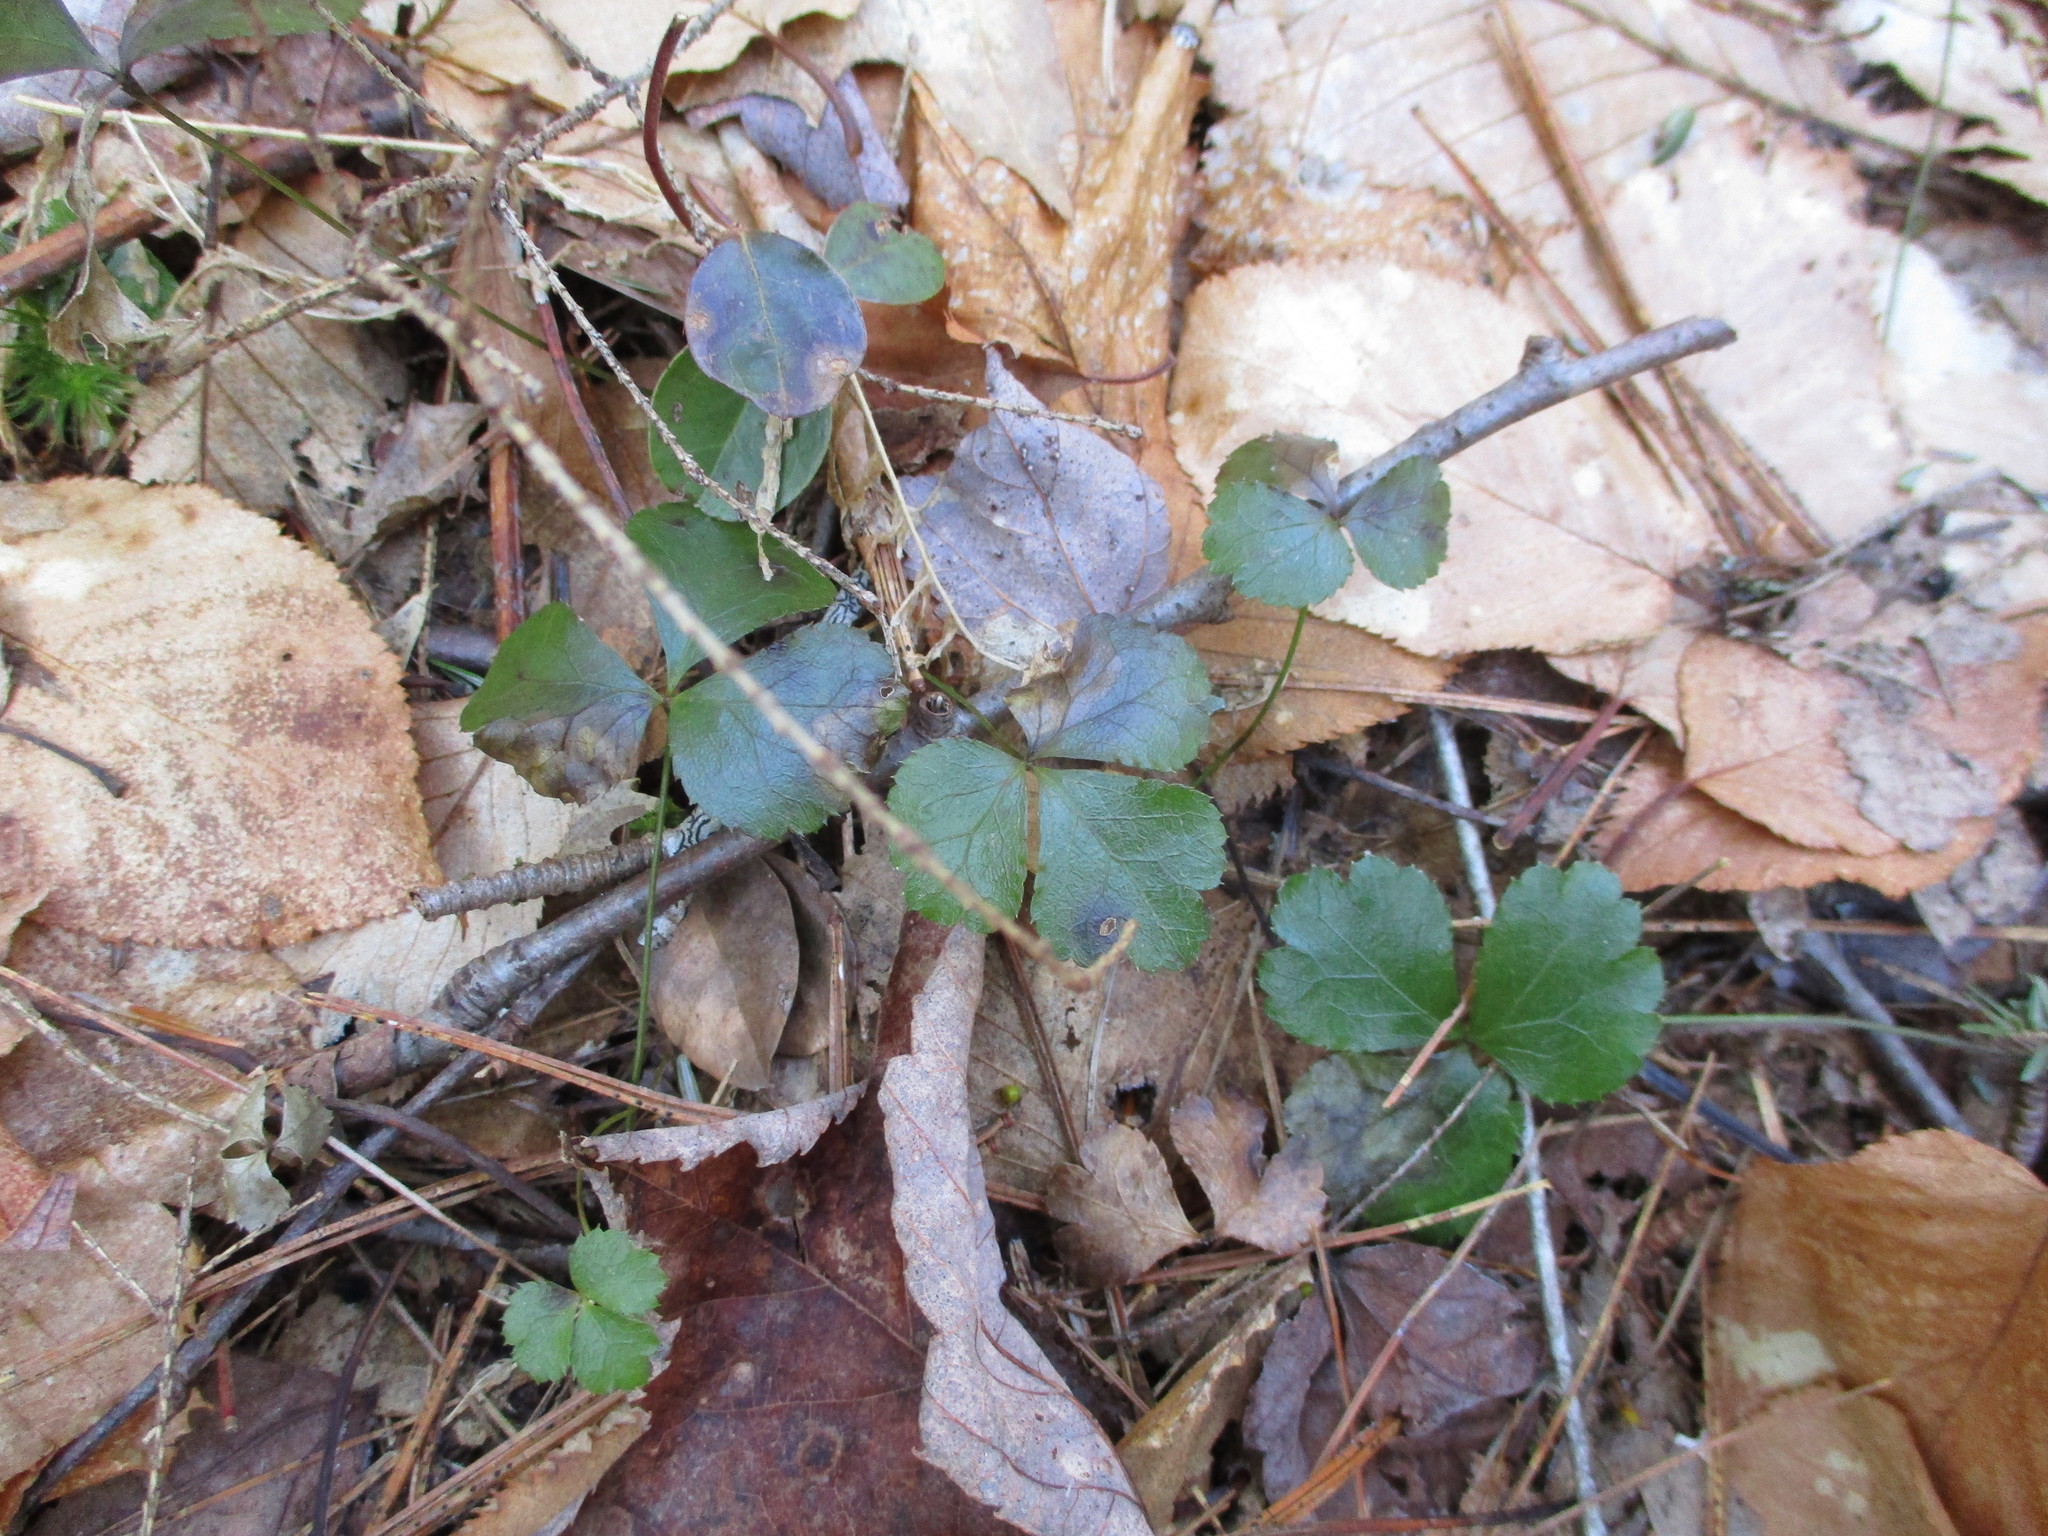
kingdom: Plantae
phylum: Tracheophyta
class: Magnoliopsida
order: Ranunculales
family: Ranunculaceae
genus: Coptis
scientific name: Coptis trifolia
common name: Canker-root
